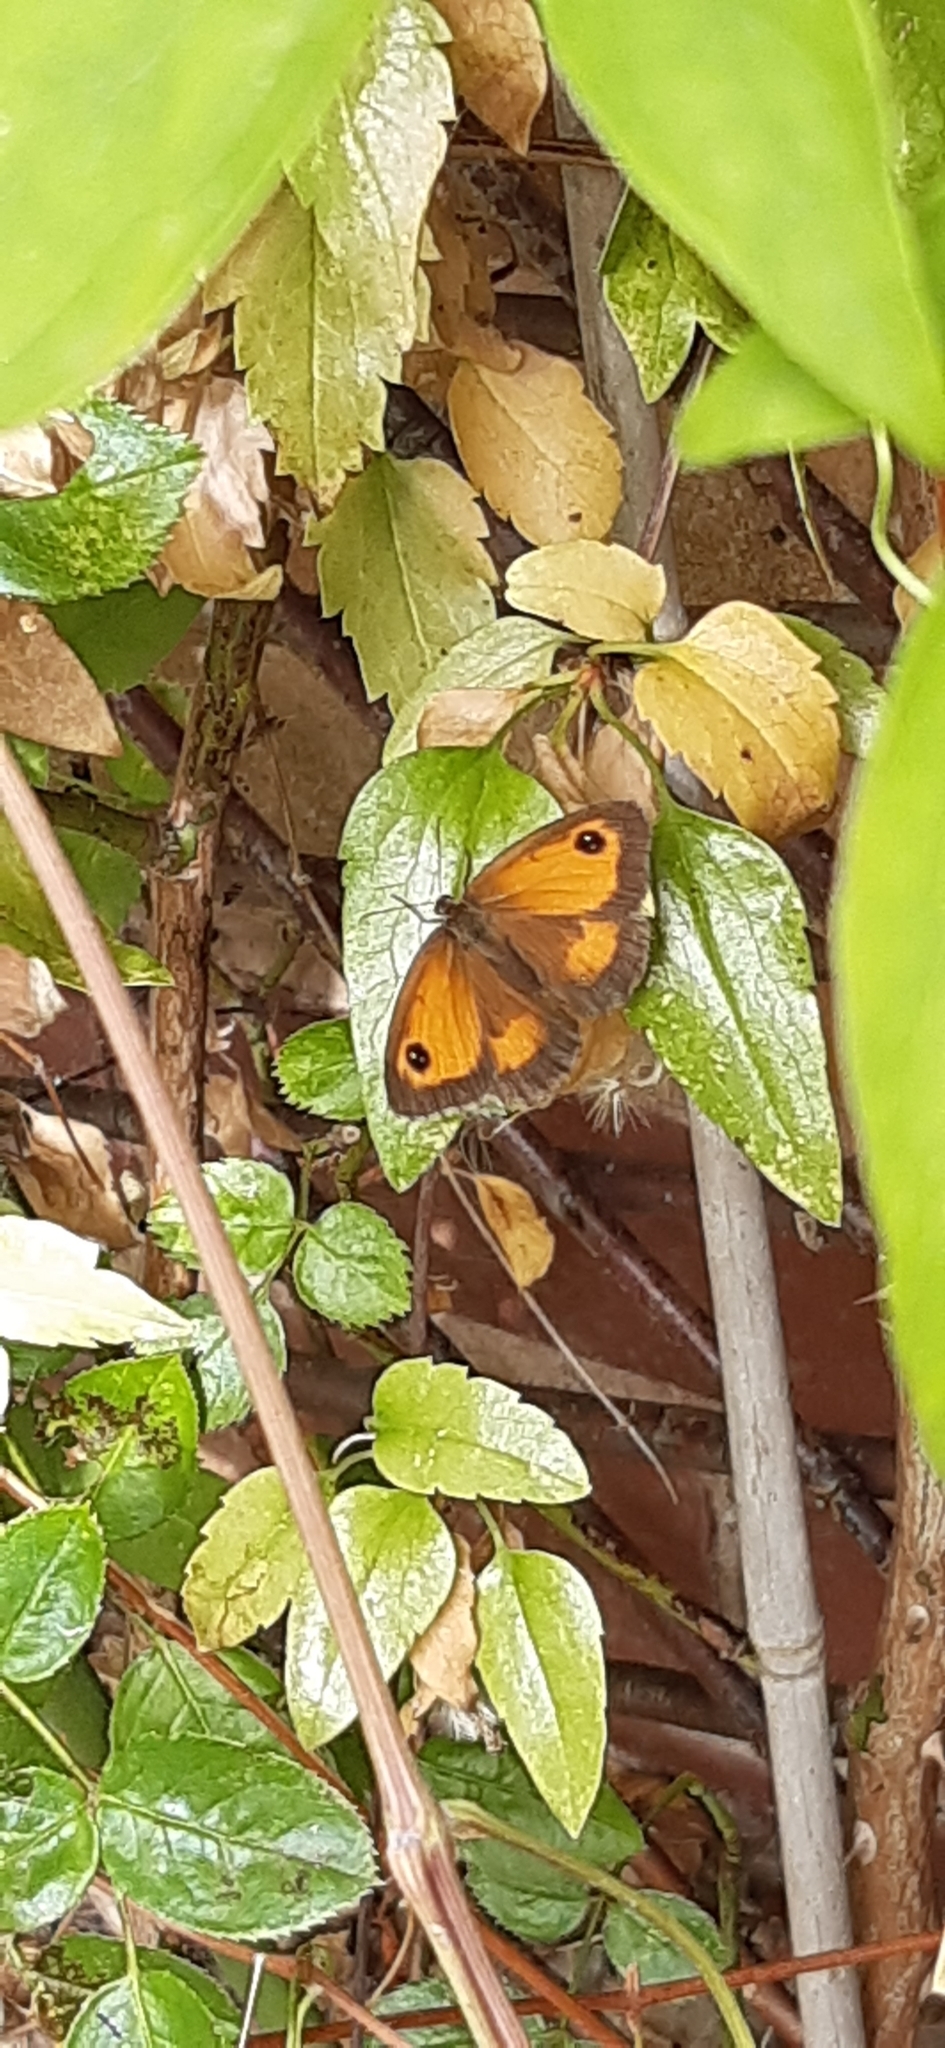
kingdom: Animalia
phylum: Arthropoda
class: Insecta
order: Lepidoptera
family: Nymphalidae
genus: Pyronia
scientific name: Pyronia tithonus
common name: Gatekeeper
